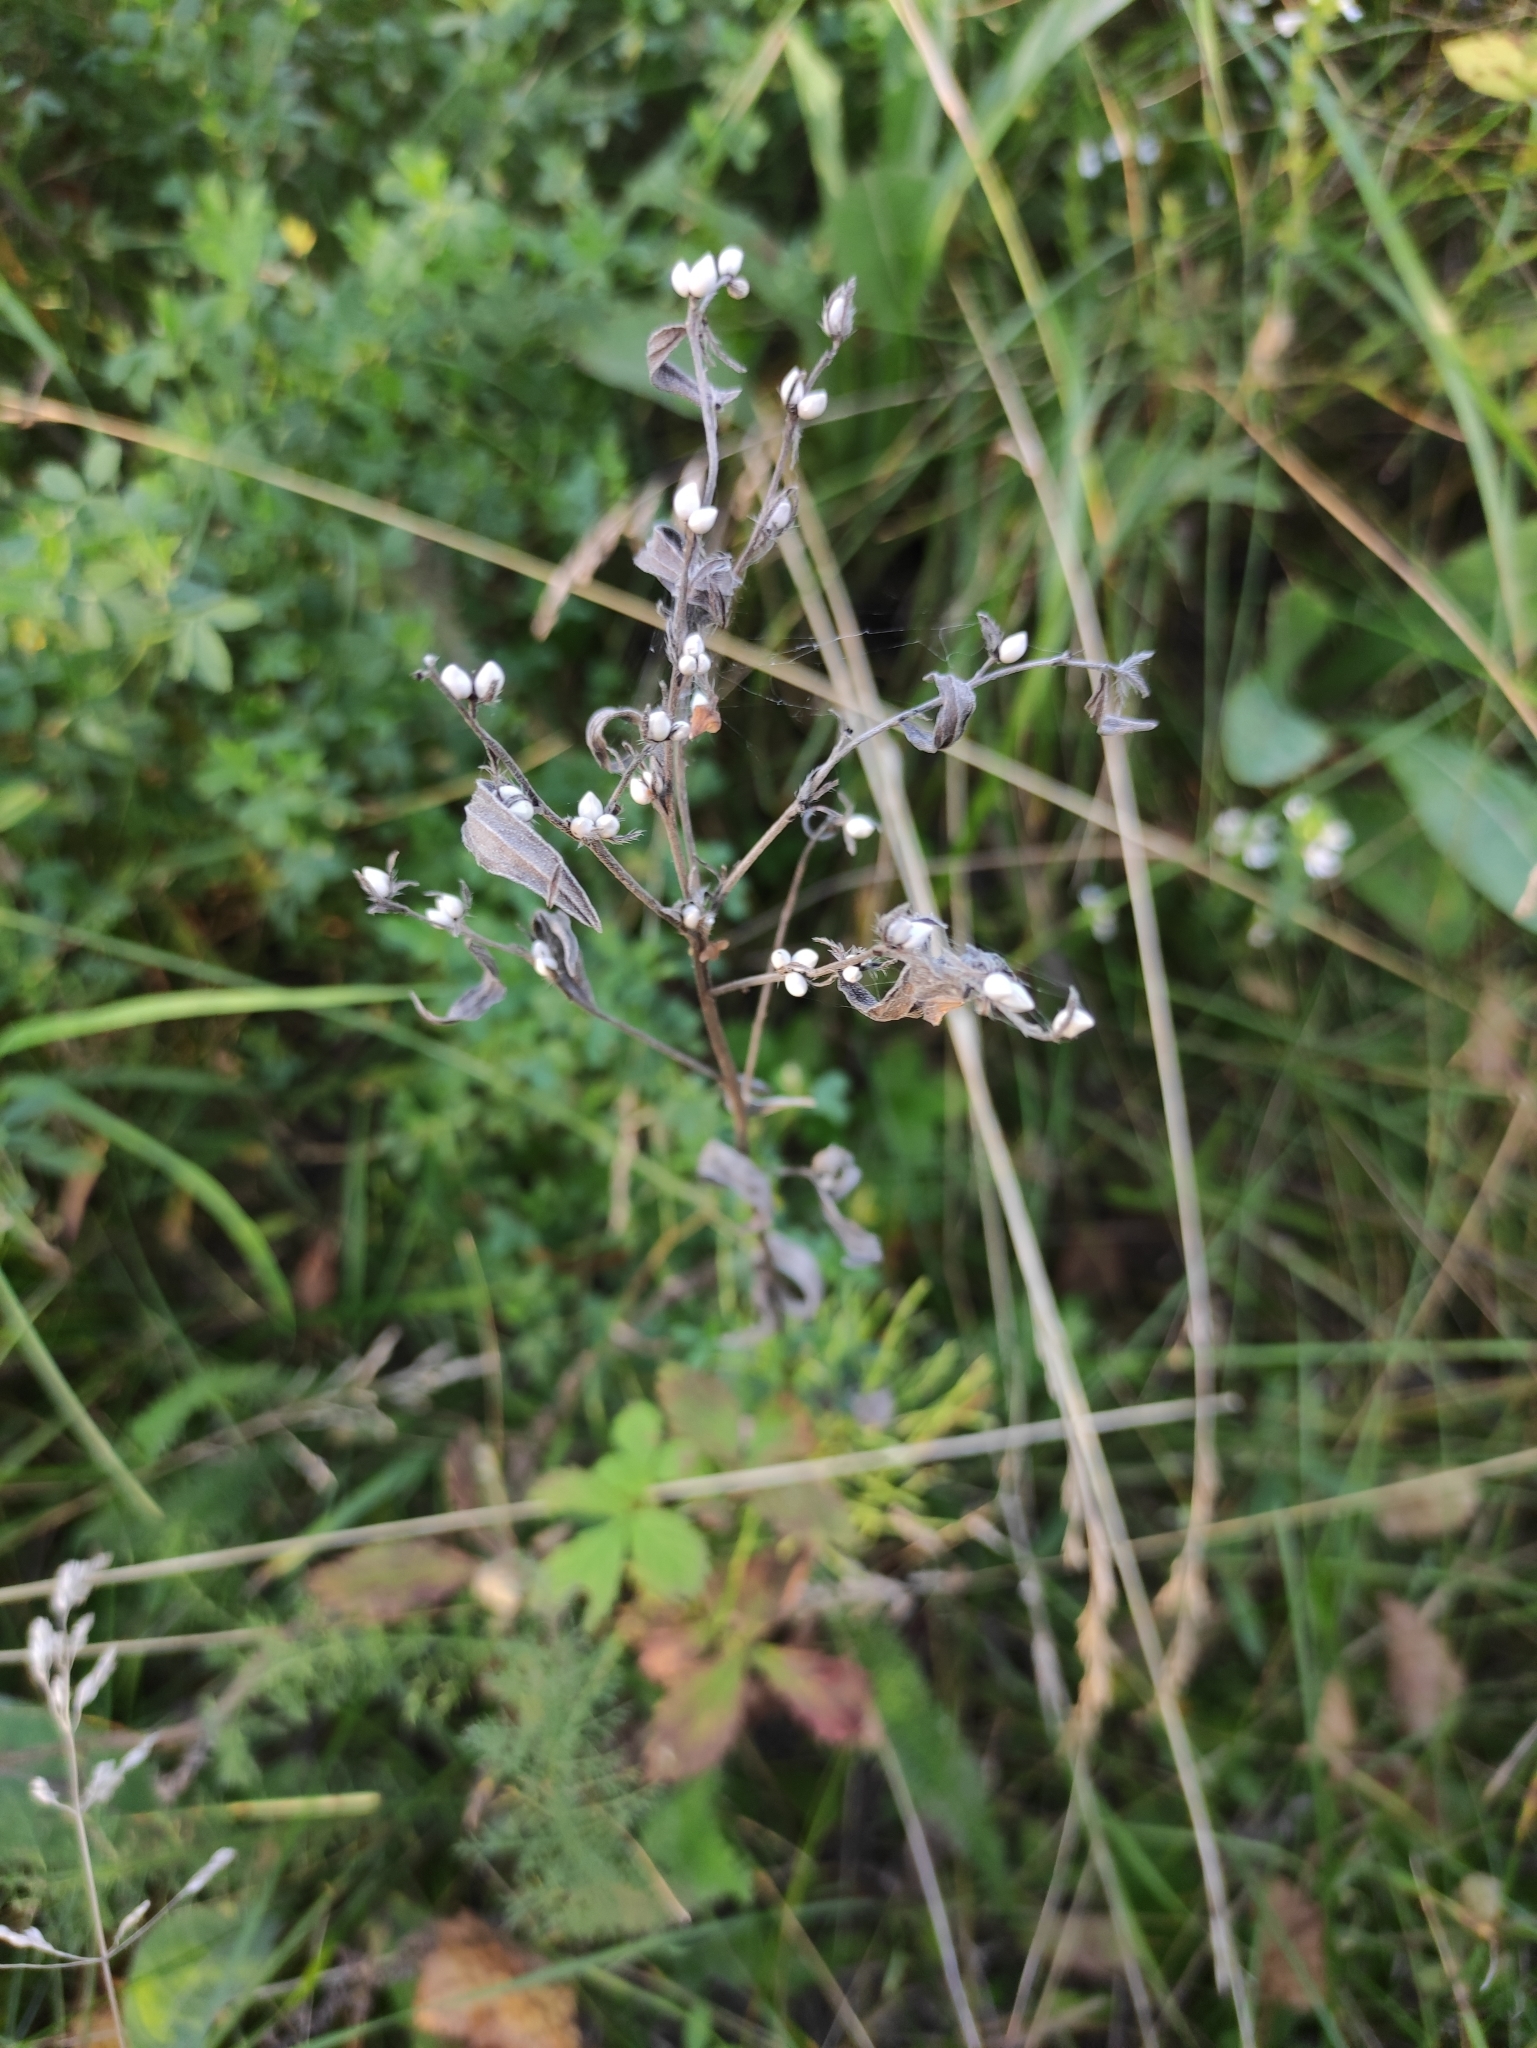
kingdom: Plantae
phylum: Tracheophyta
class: Magnoliopsida
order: Boraginales
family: Boraginaceae
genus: Lithospermum
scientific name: Lithospermum officinale
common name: Common gromwell
